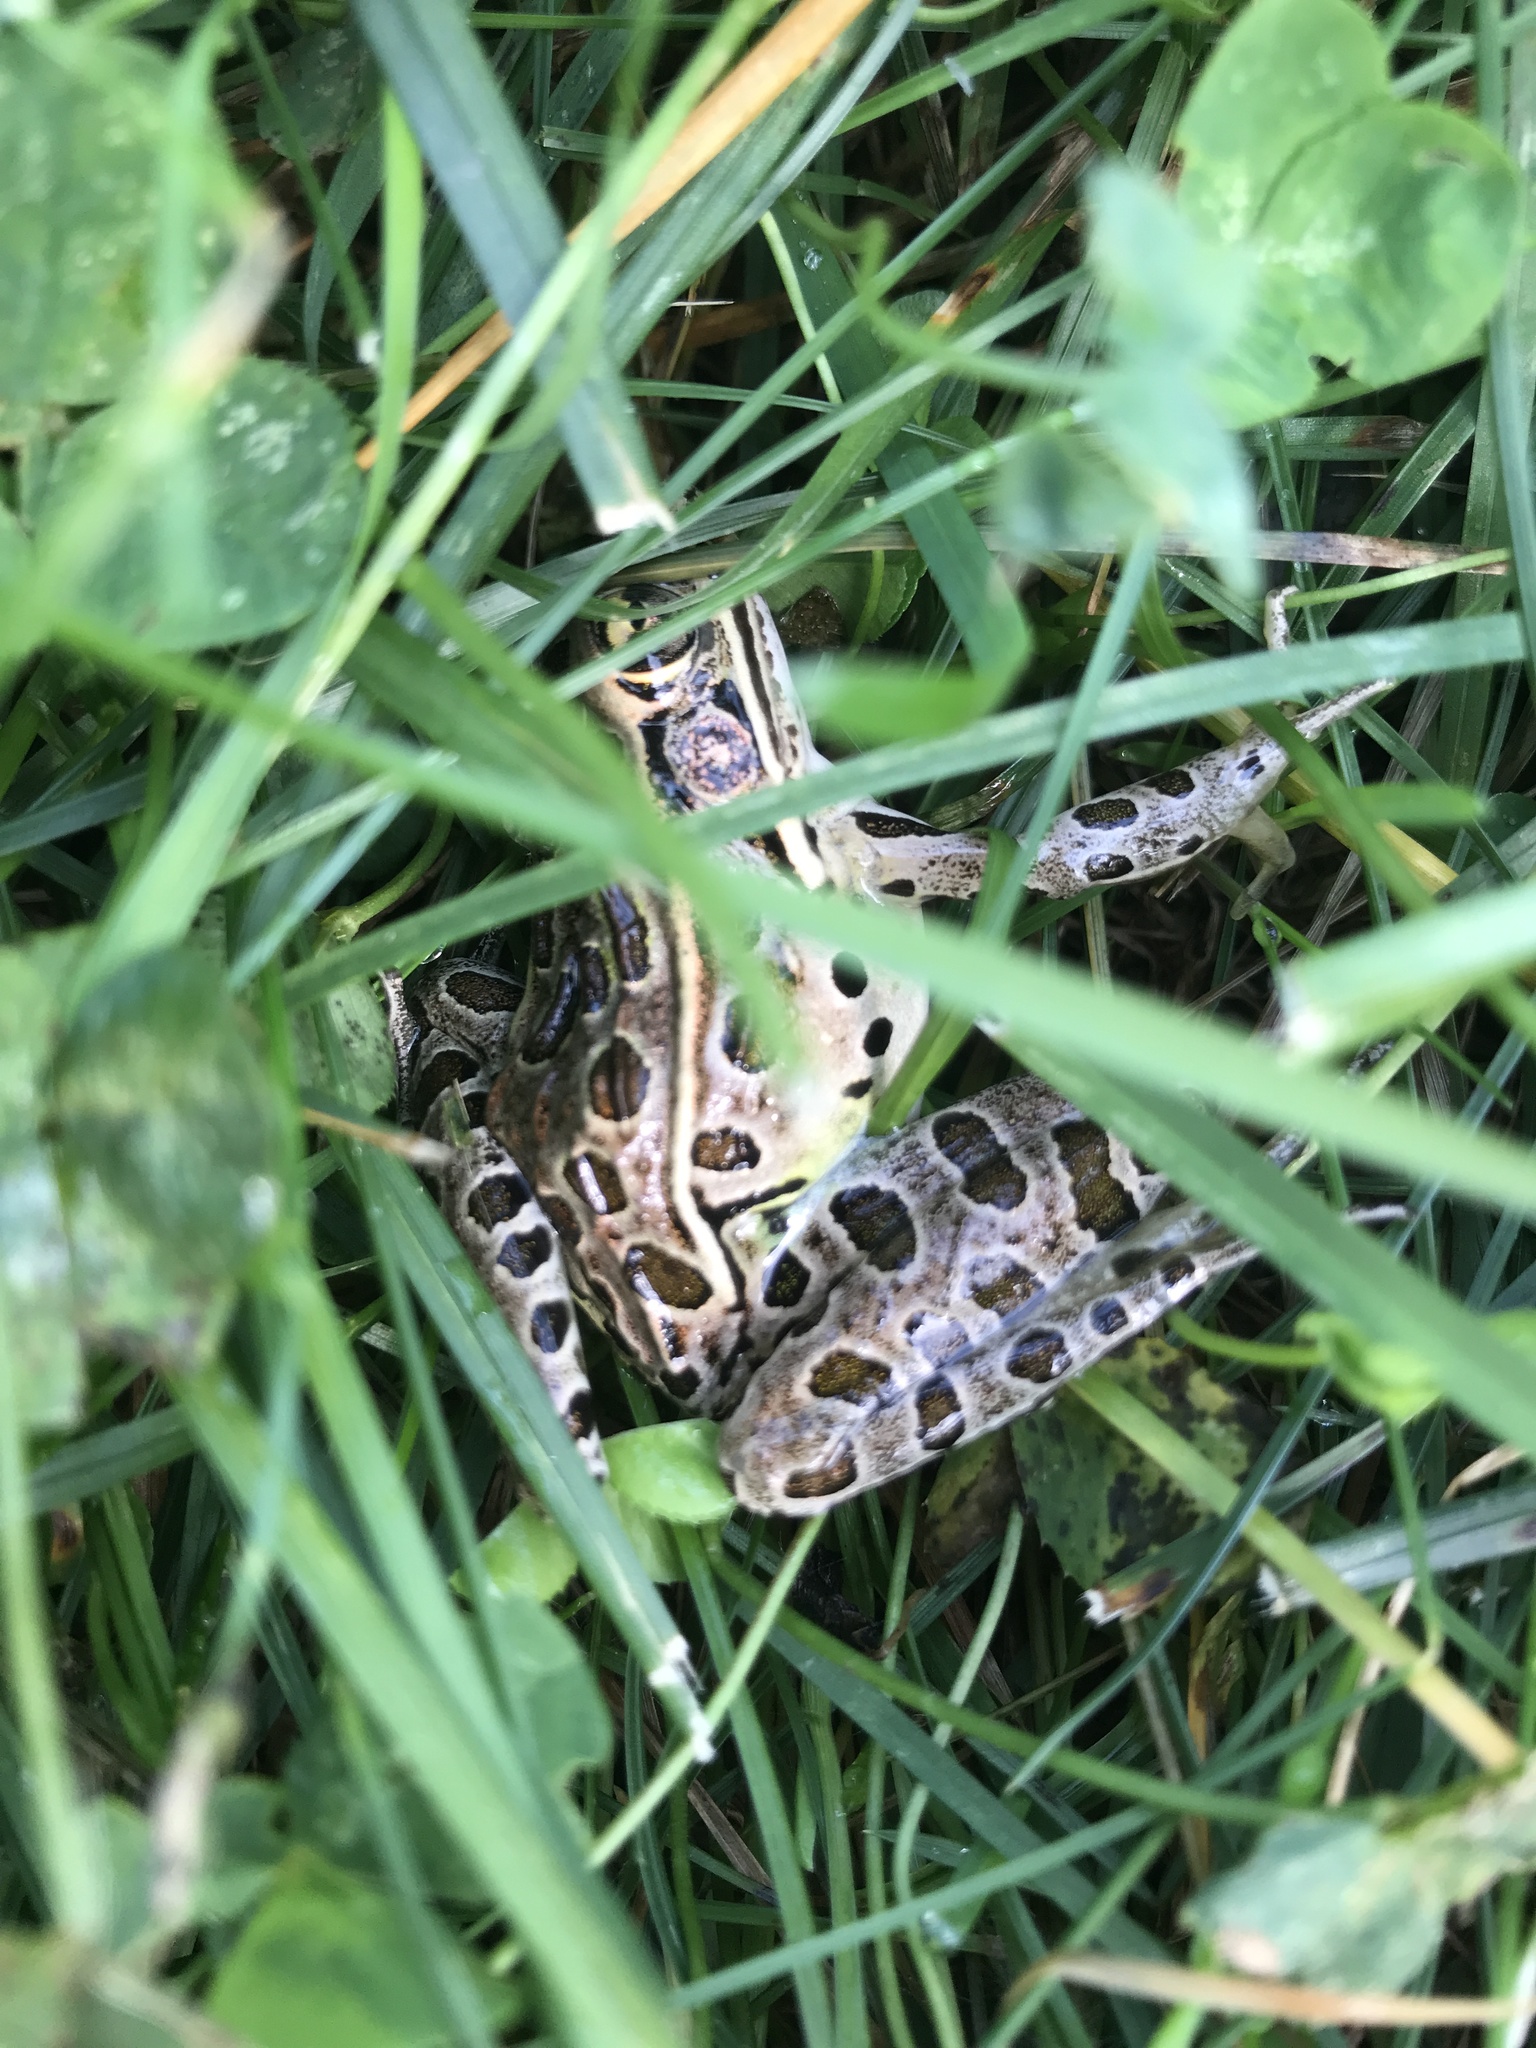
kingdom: Animalia
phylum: Chordata
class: Amphibia
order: Anura
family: Ranidae
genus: Lithobates
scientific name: Lithobates pipiens
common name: Northern leopard frog
